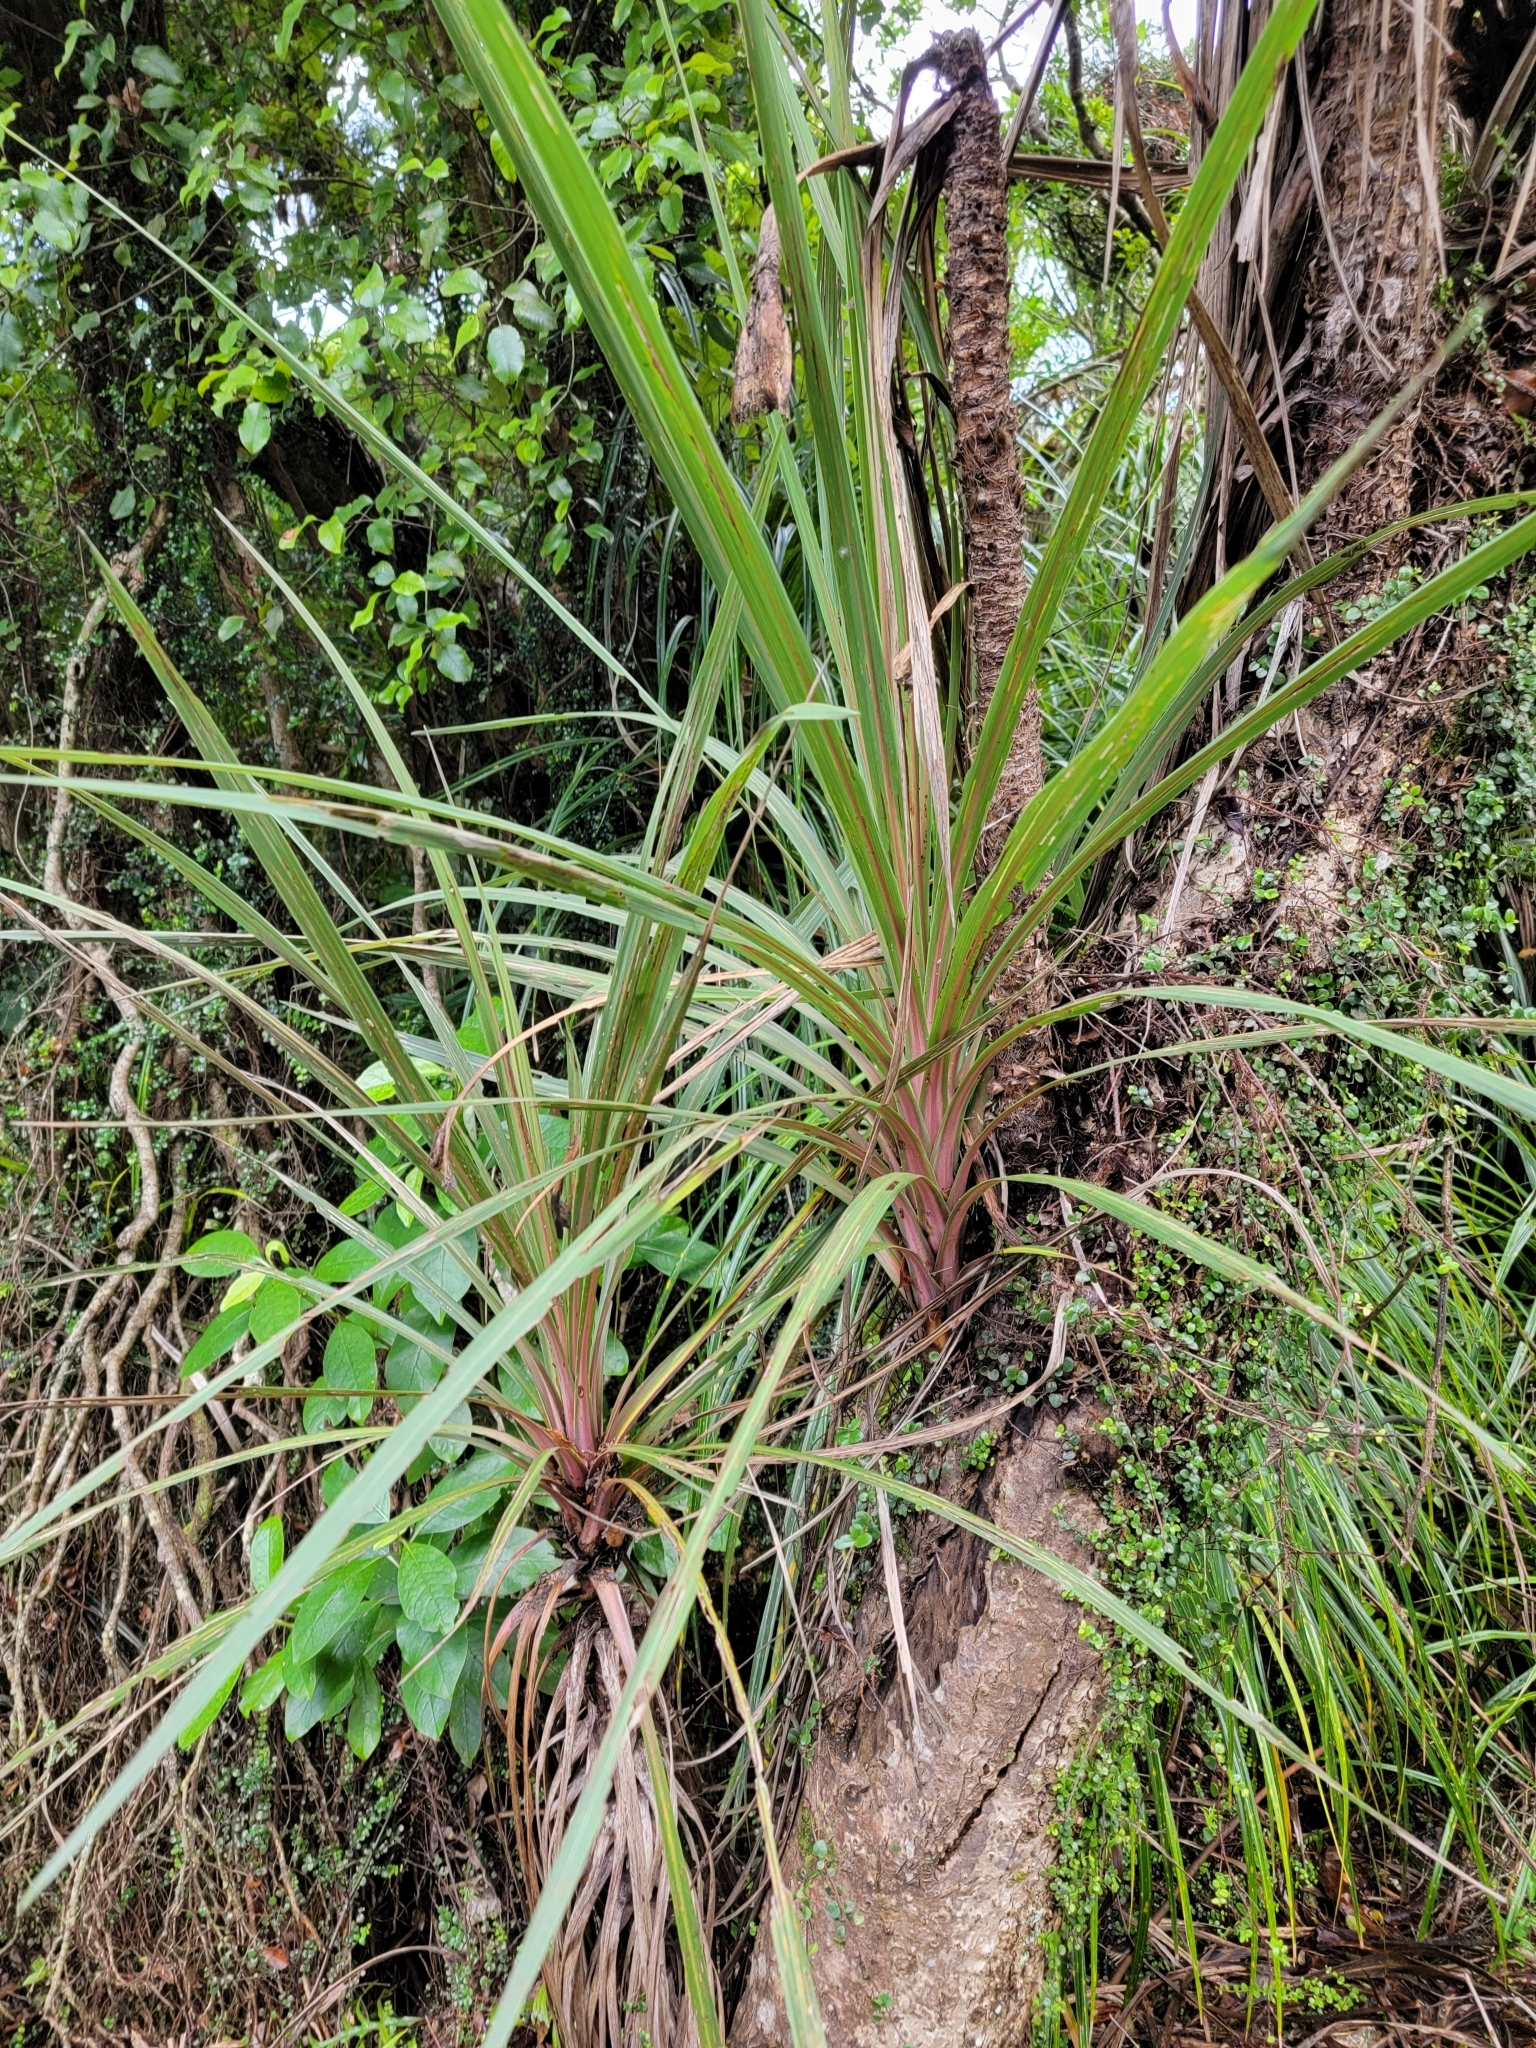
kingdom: Plantae
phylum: Tracheophyta
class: Liliopsida
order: Asparagales
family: Asparagaceae
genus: Cordyline
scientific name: Cordyline australis
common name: Cabbage-palm
